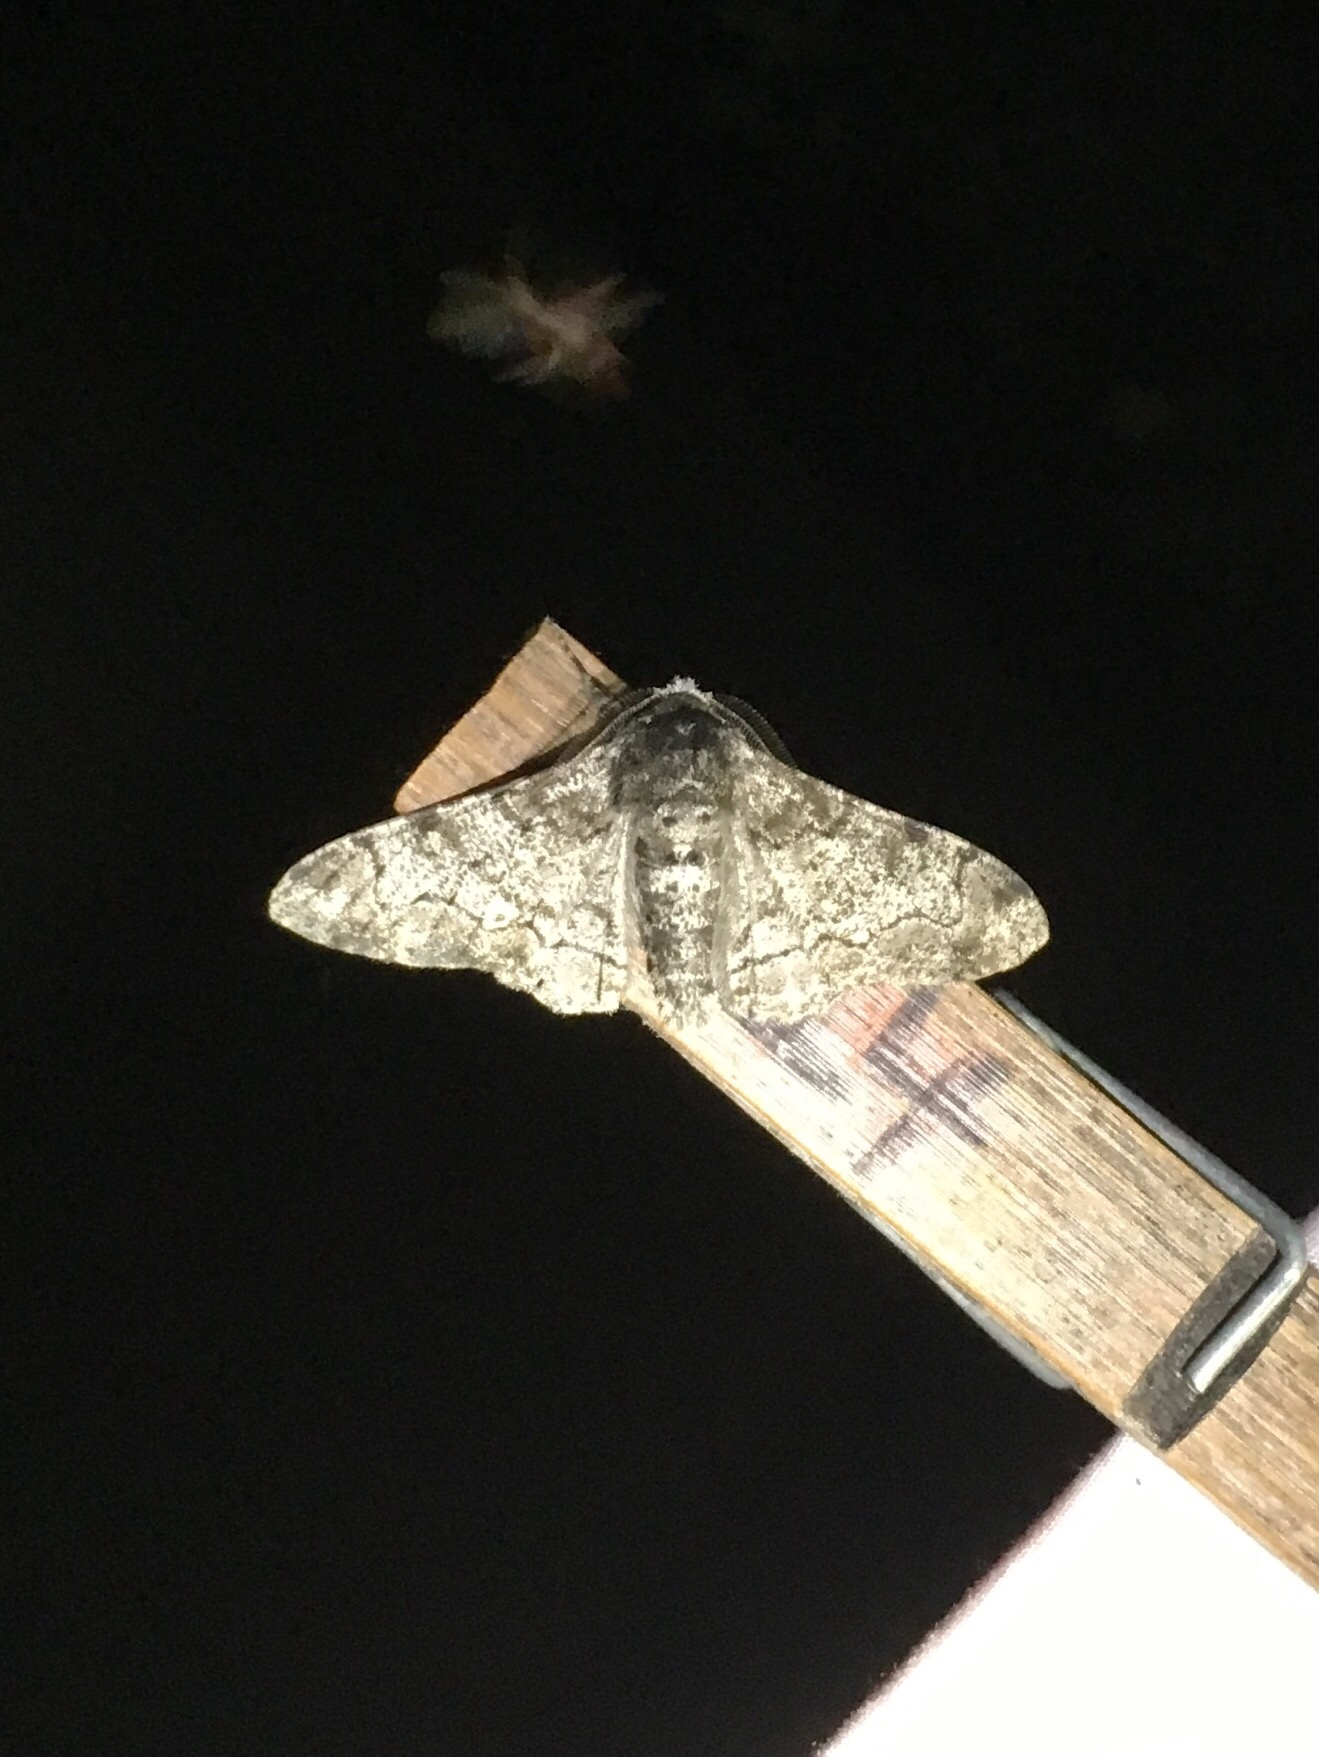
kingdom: Animalia
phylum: Arthropoda
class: Insecta
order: Lepidoptera
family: Geometridae
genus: Biston
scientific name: Biston betularia
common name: Peppered moth
